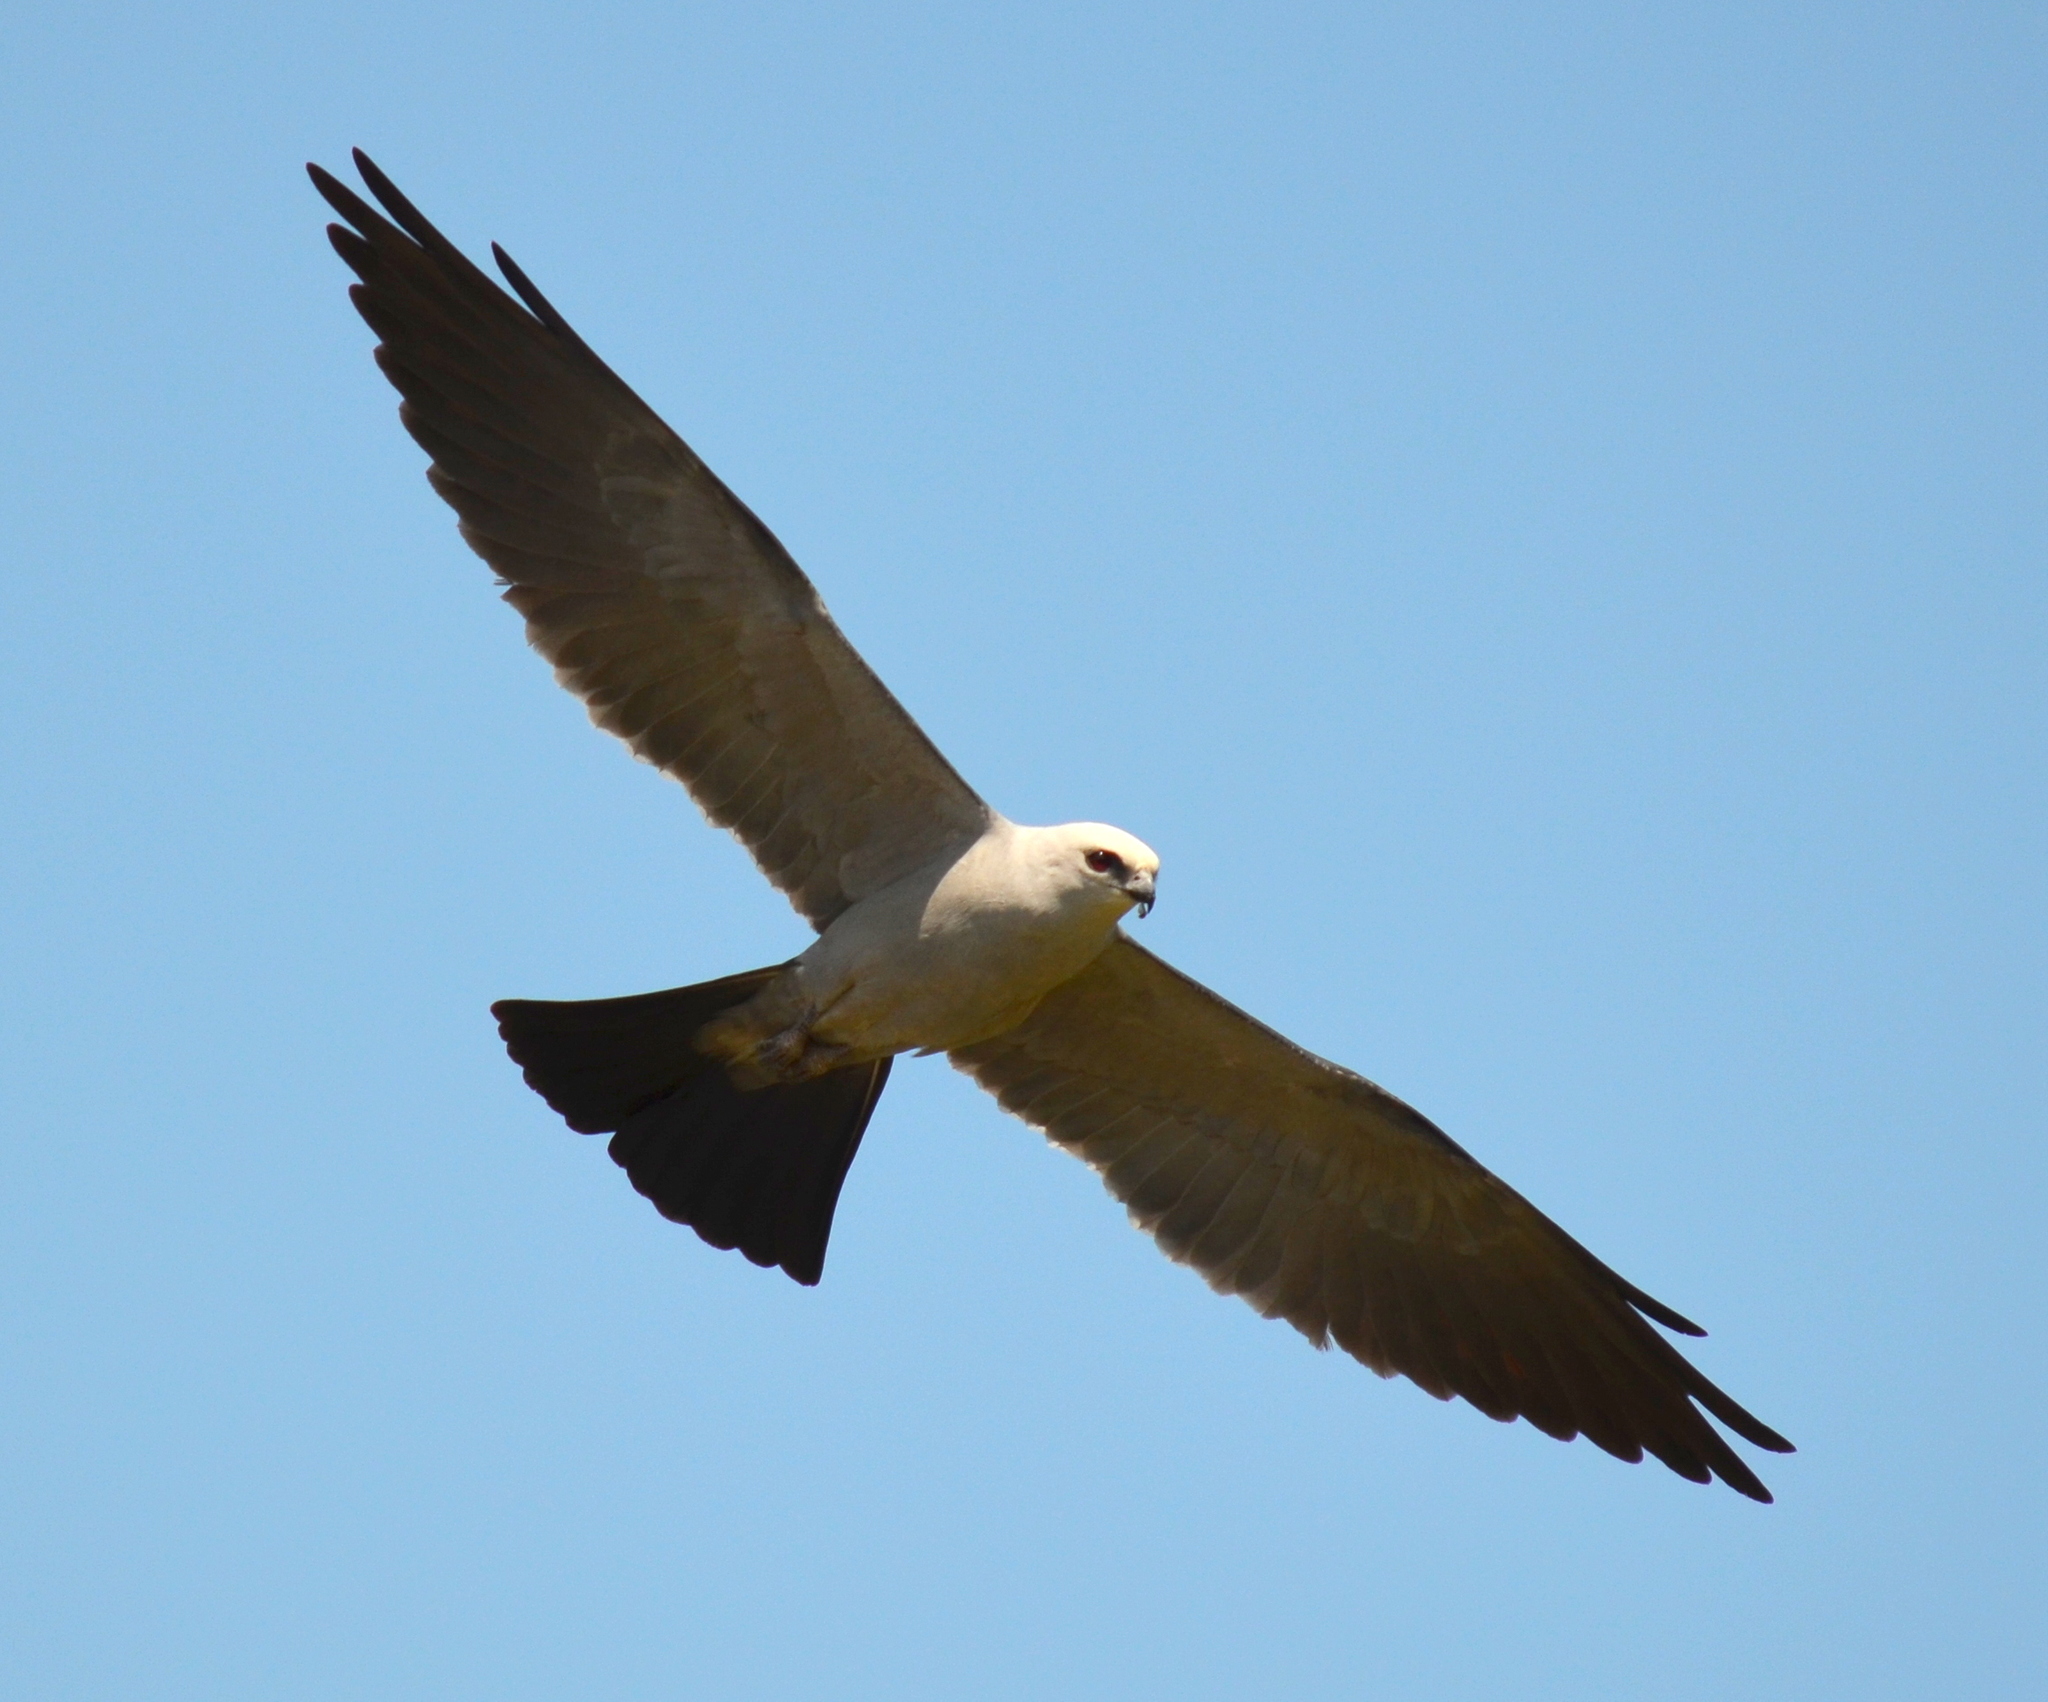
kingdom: Animalia
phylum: Chordata
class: Aves
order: Accipitriformes
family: Accipitridae
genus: Ictinia
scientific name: Ictinia mississippiensis
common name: Mississippi kite
